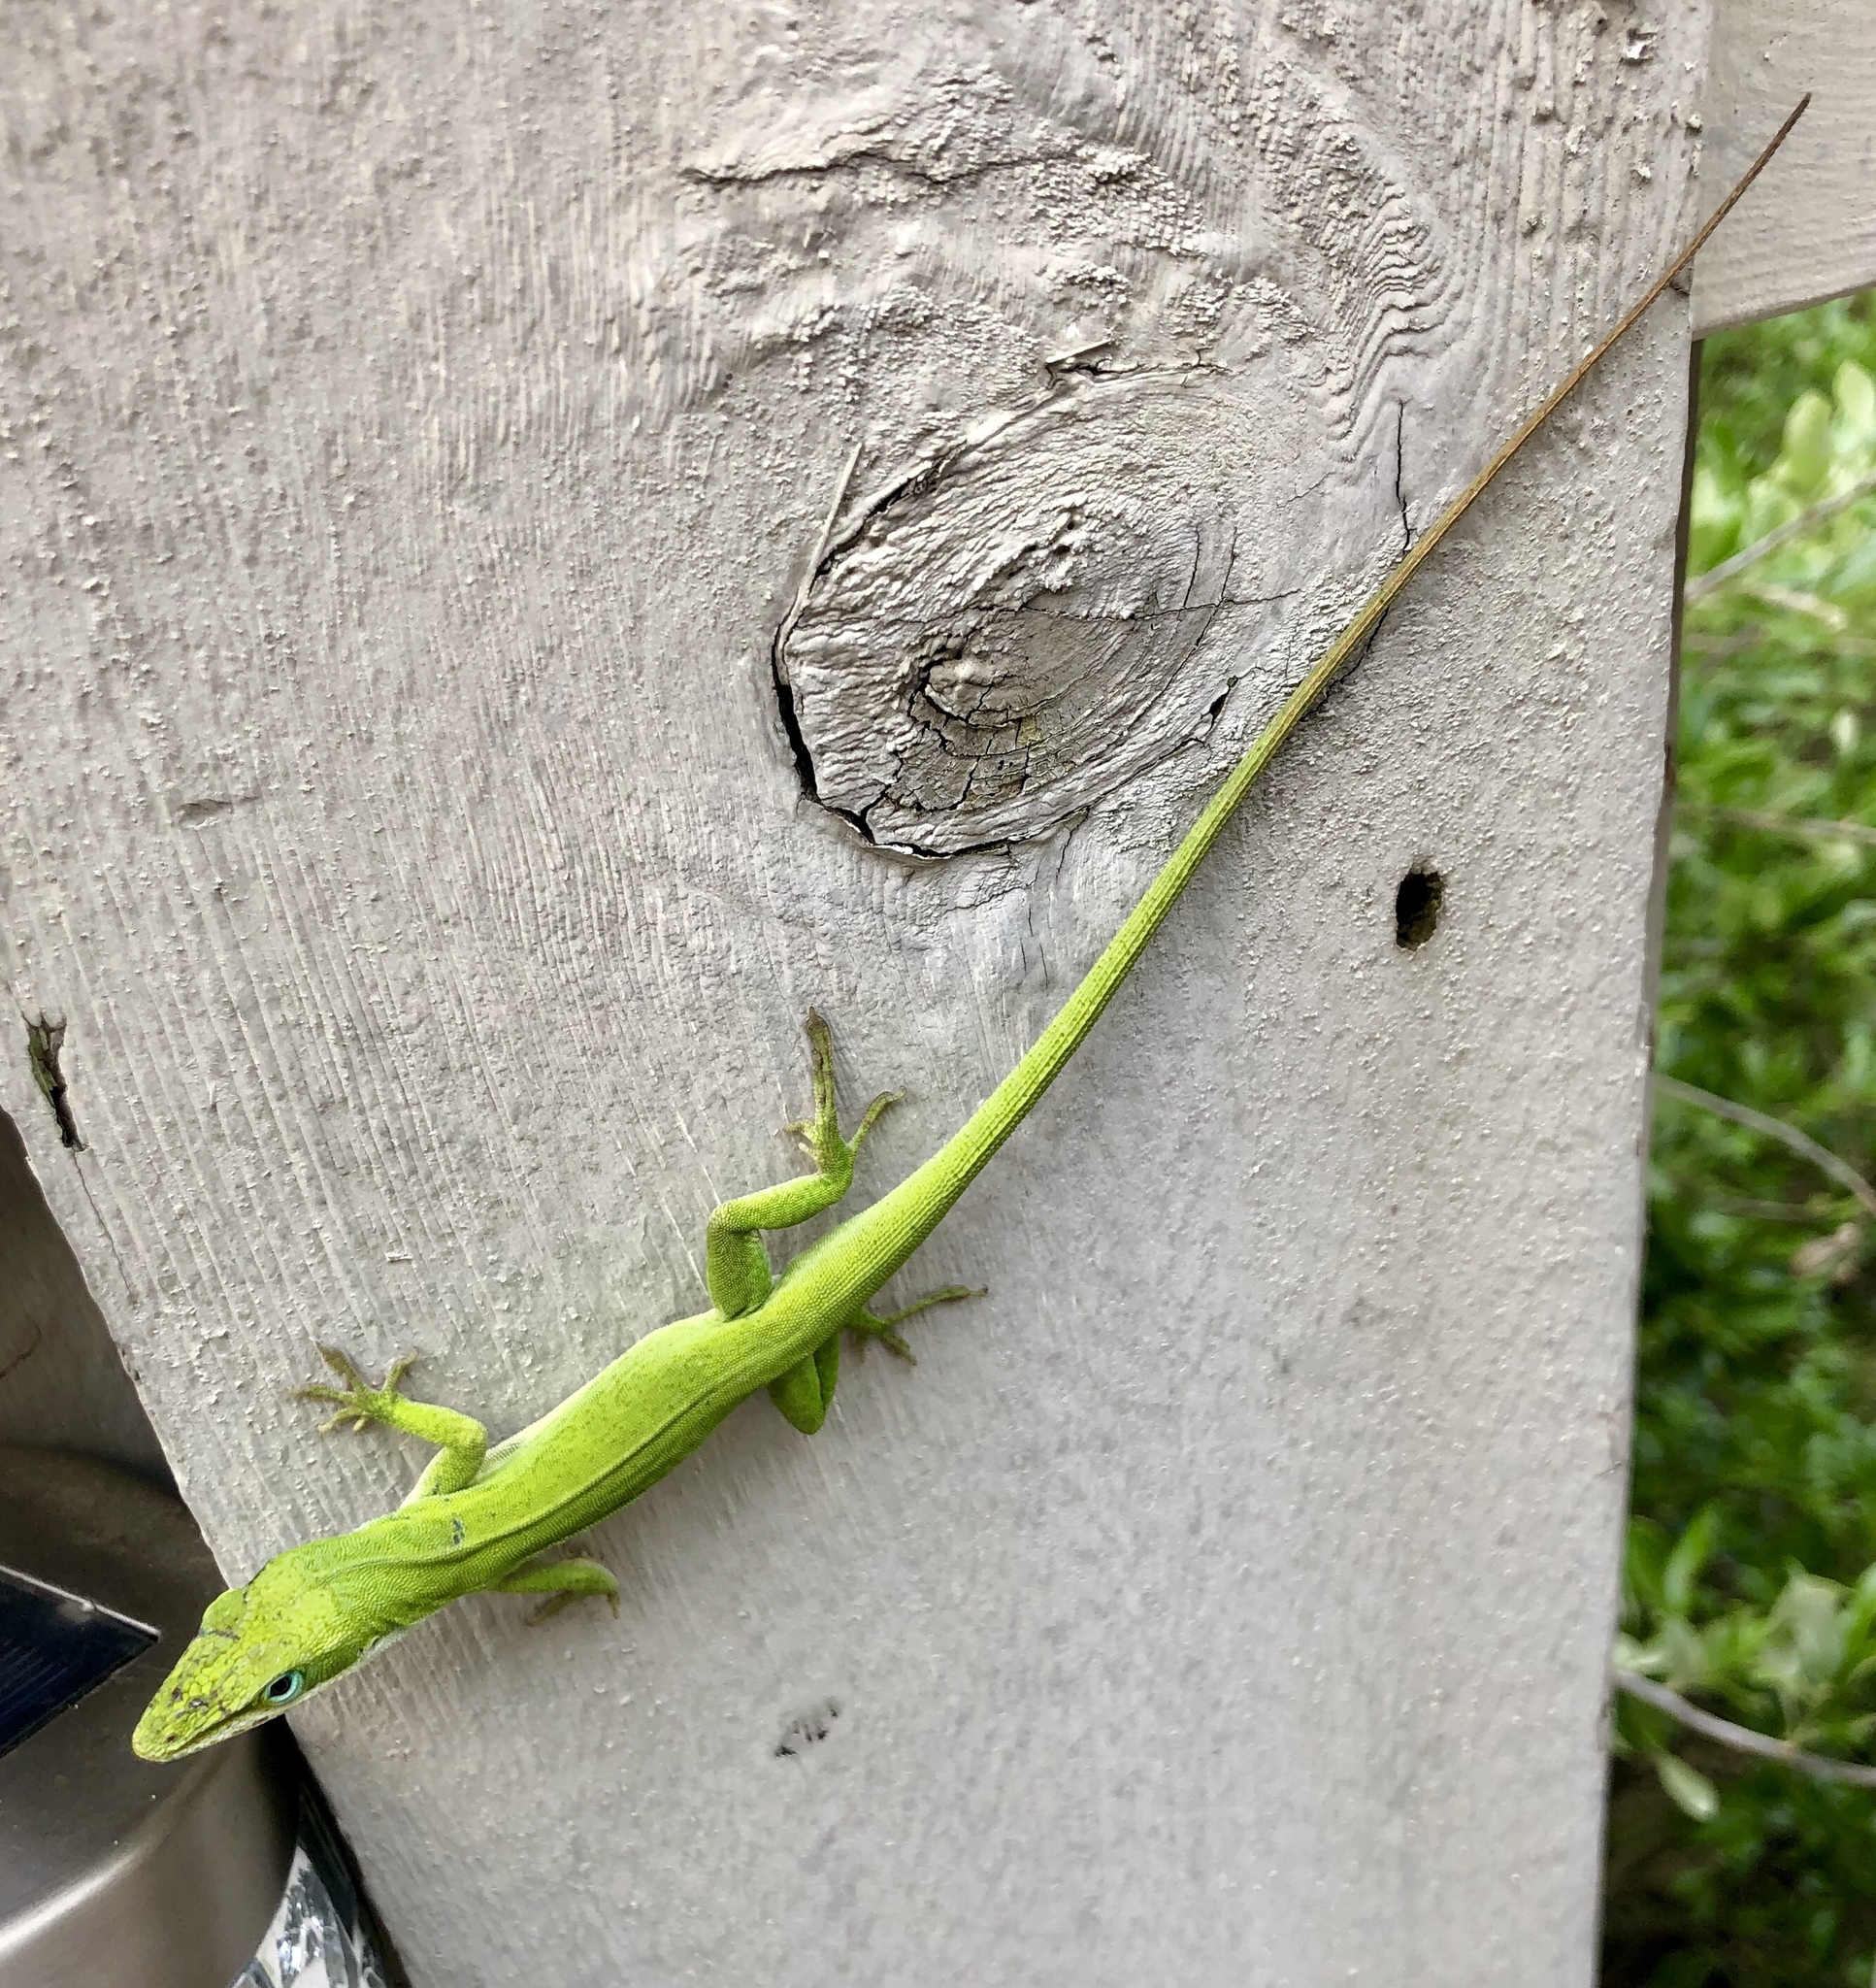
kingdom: Animalia
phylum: Chordata
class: Squamata
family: Dactyloidae
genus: Anolis
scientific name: Anolis carolinensis
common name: Green anole
